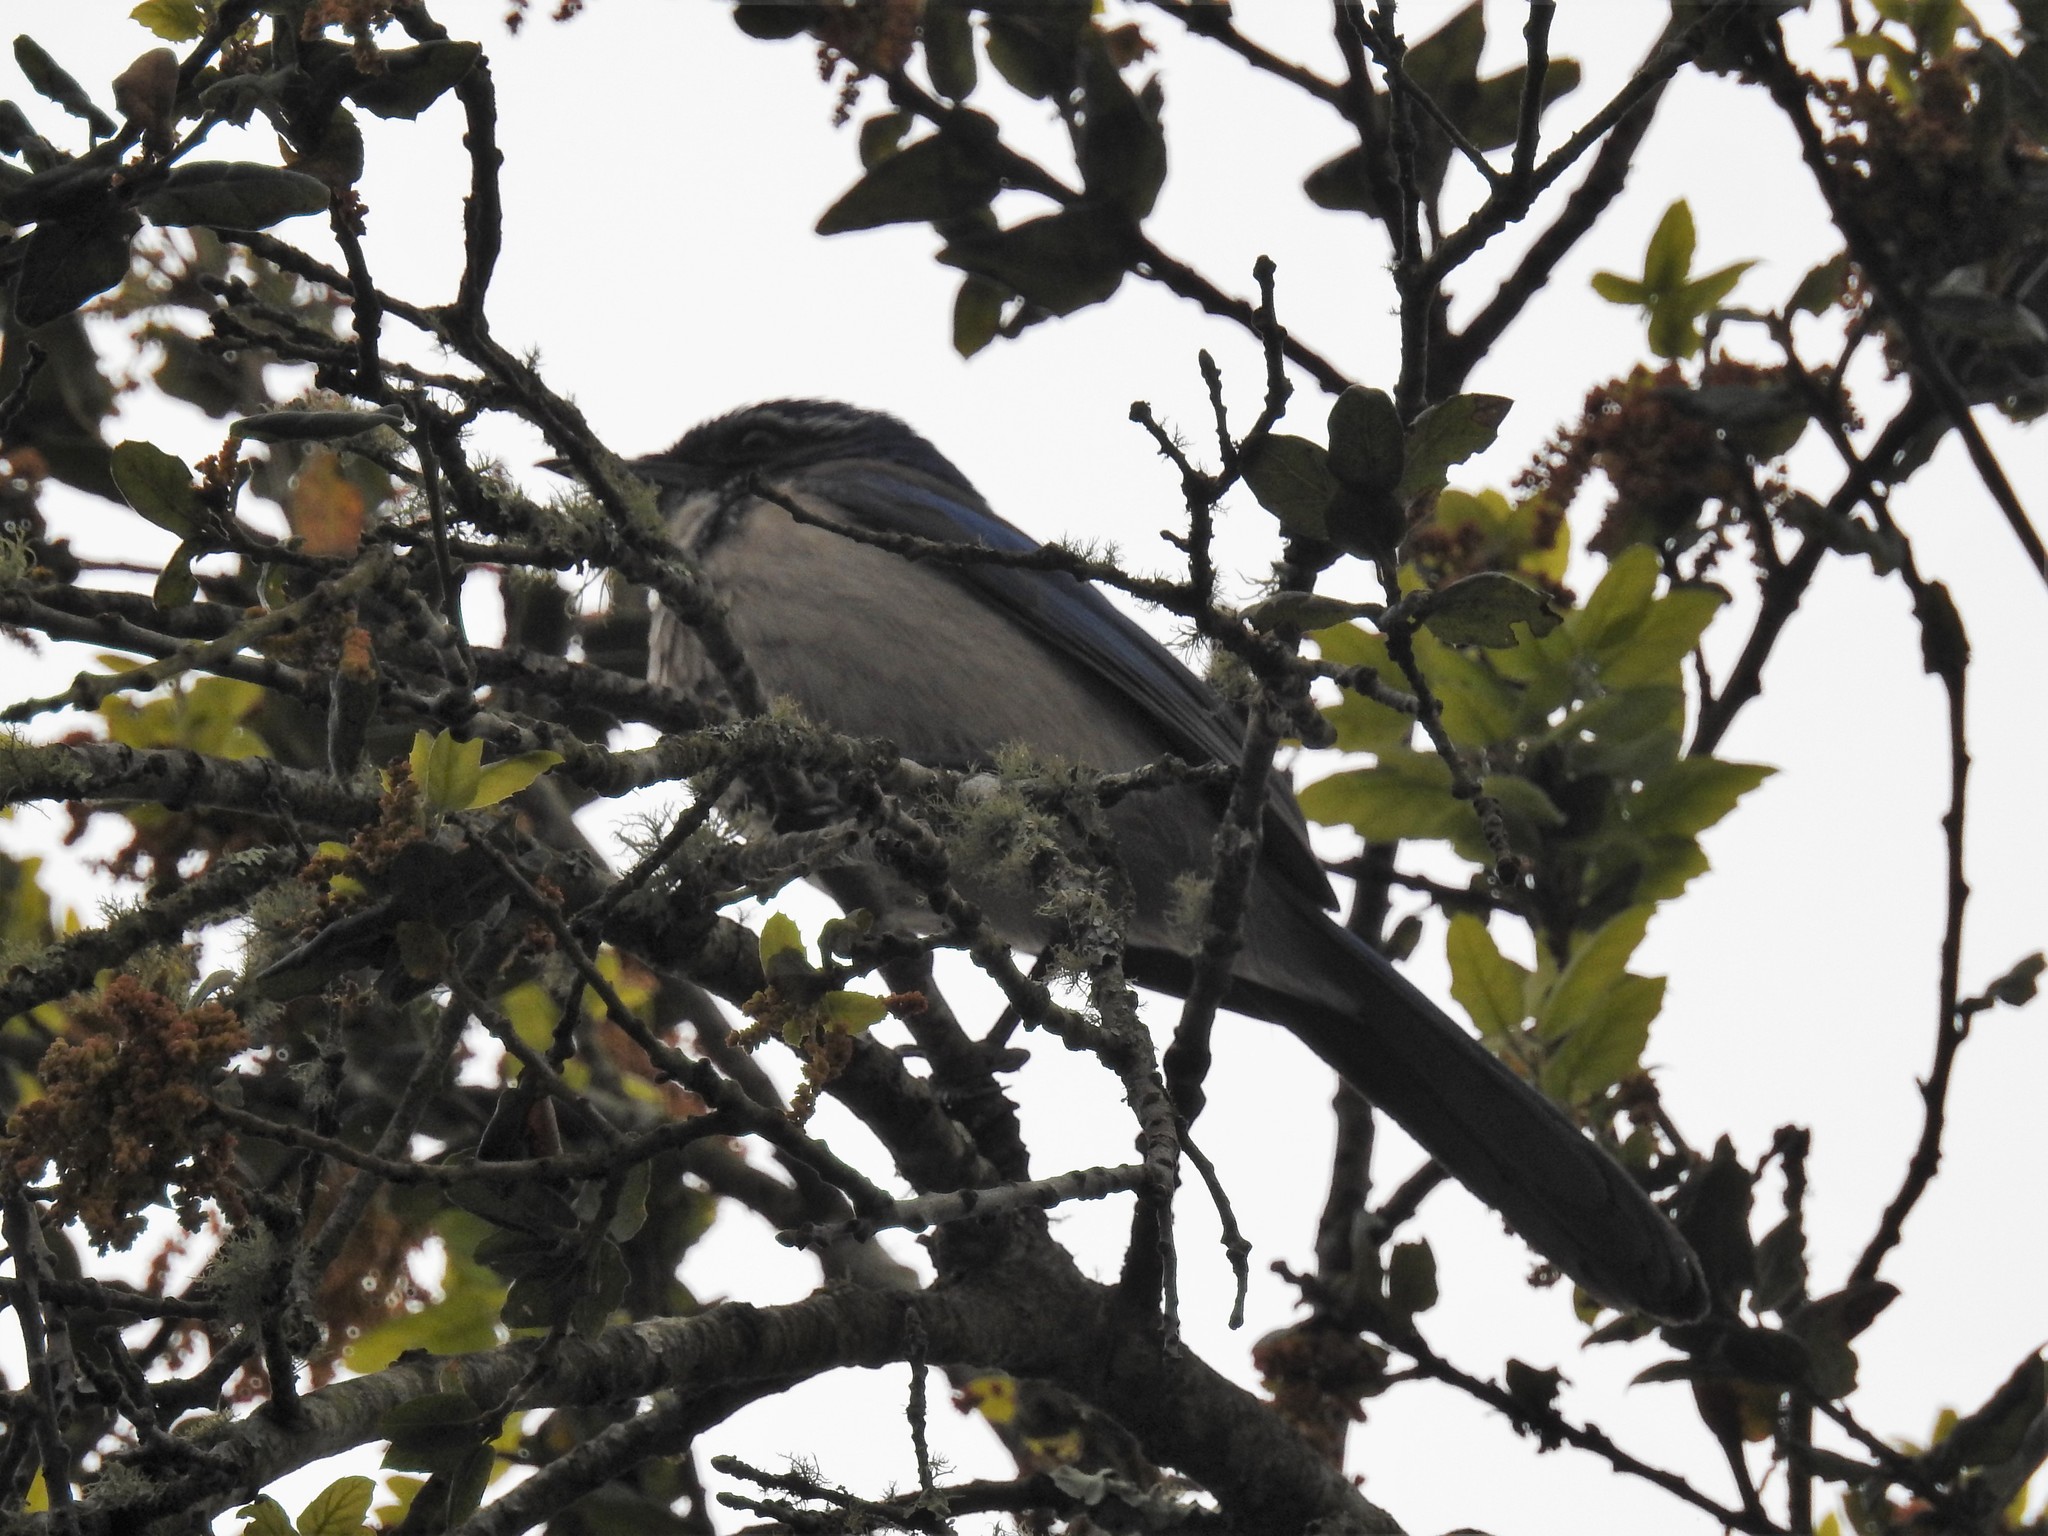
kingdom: Animalia
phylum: Chordata
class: Aves
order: Passeriformes
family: Corvidae
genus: Aphelocoma
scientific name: Aphelocoma californica
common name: California scrub-jay
